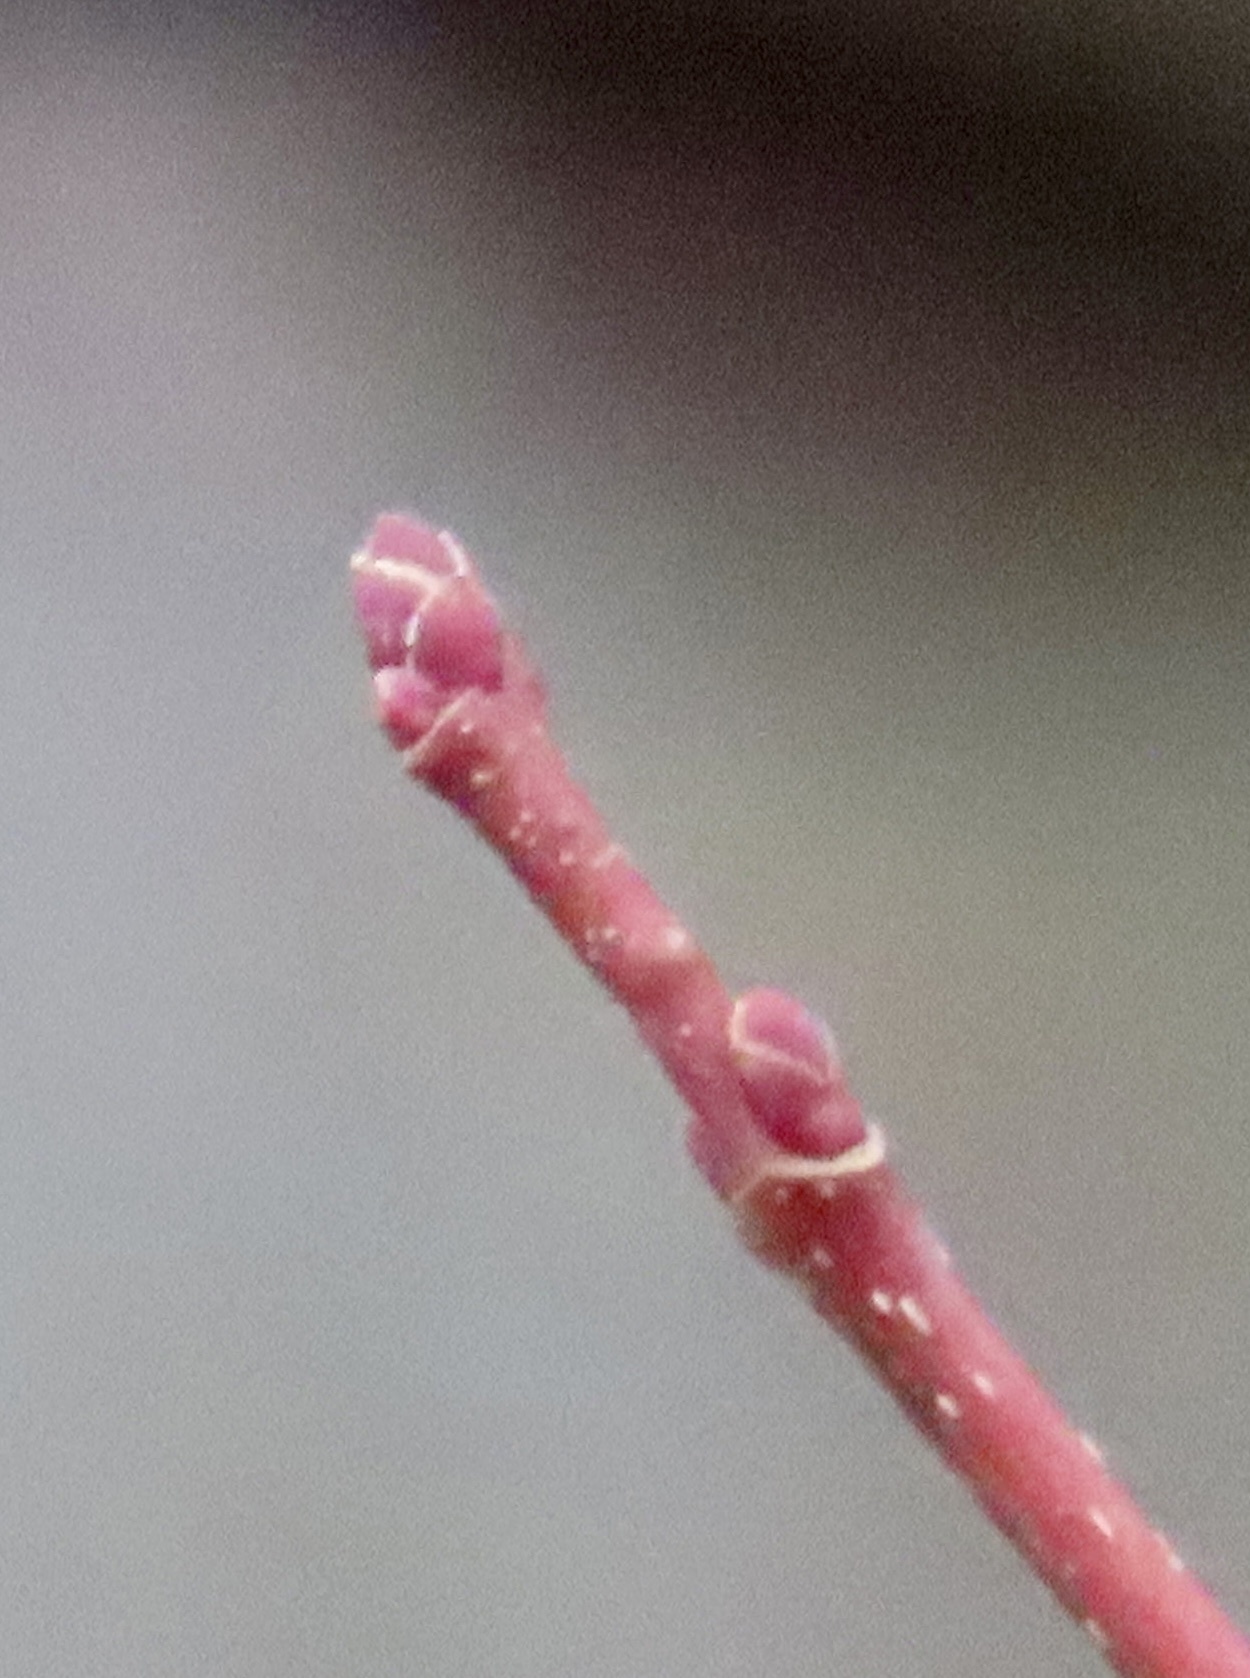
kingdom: Plantae
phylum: Tracheophyta
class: Magnoliopsida
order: Sapindales
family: Sapindaceae
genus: Acer
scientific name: Acer rubrum
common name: Red maple
